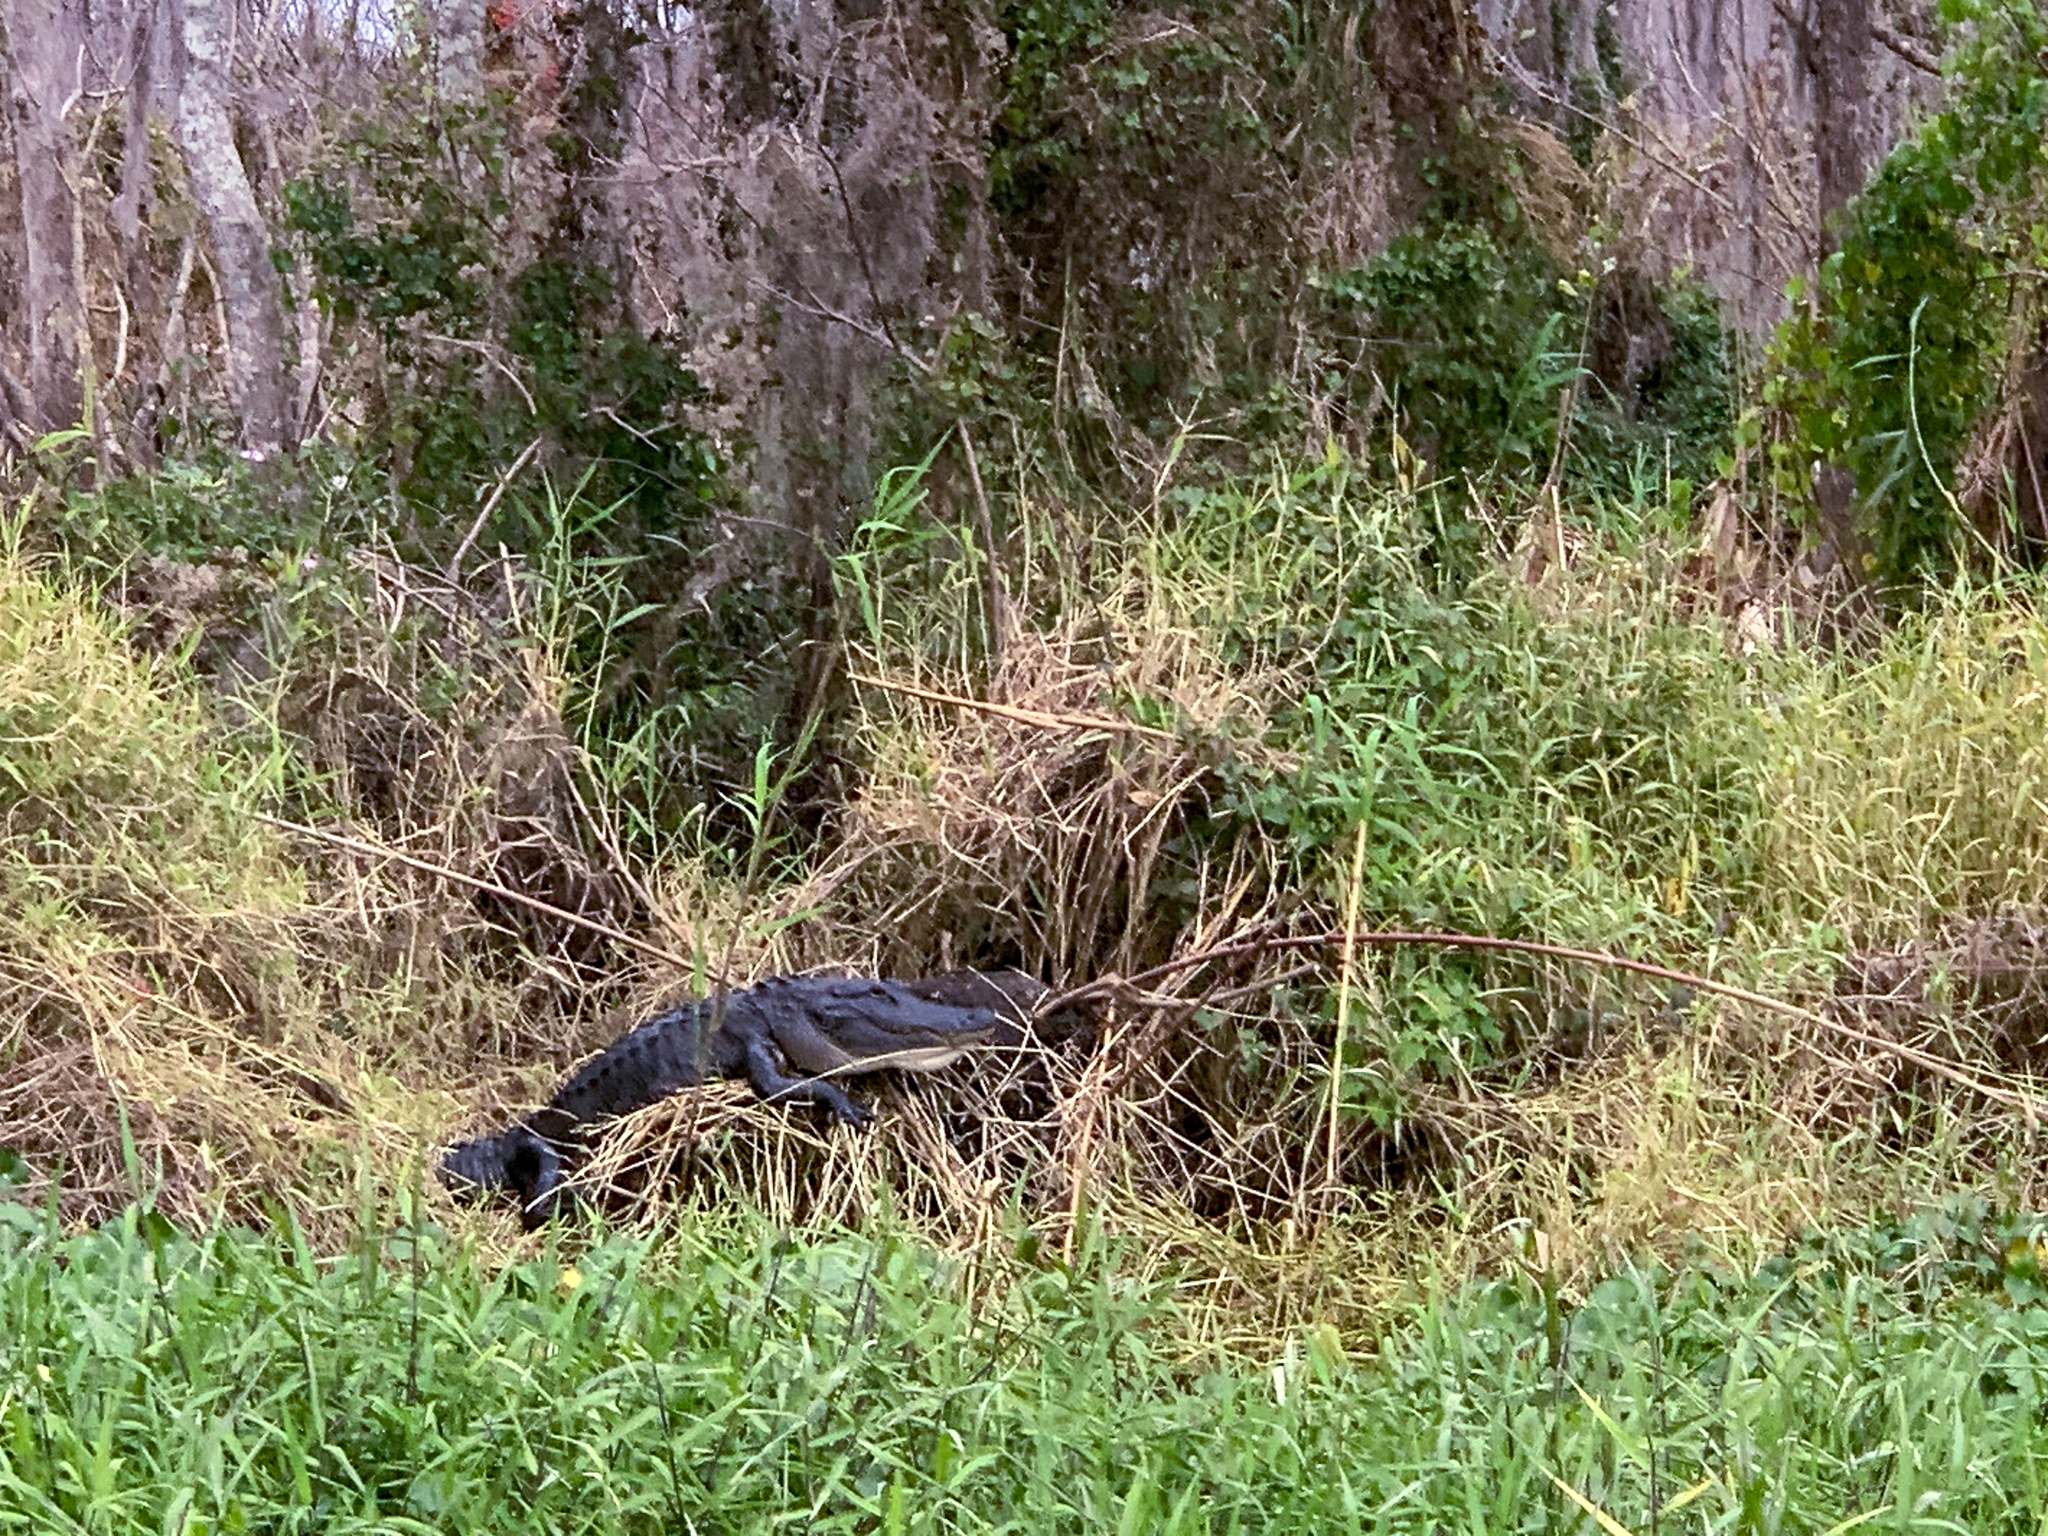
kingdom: Animalia
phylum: Chordata
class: Crocodylia
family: Alligatoridae
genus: Alligator
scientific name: Alligator mississippiensis
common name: American alligator
